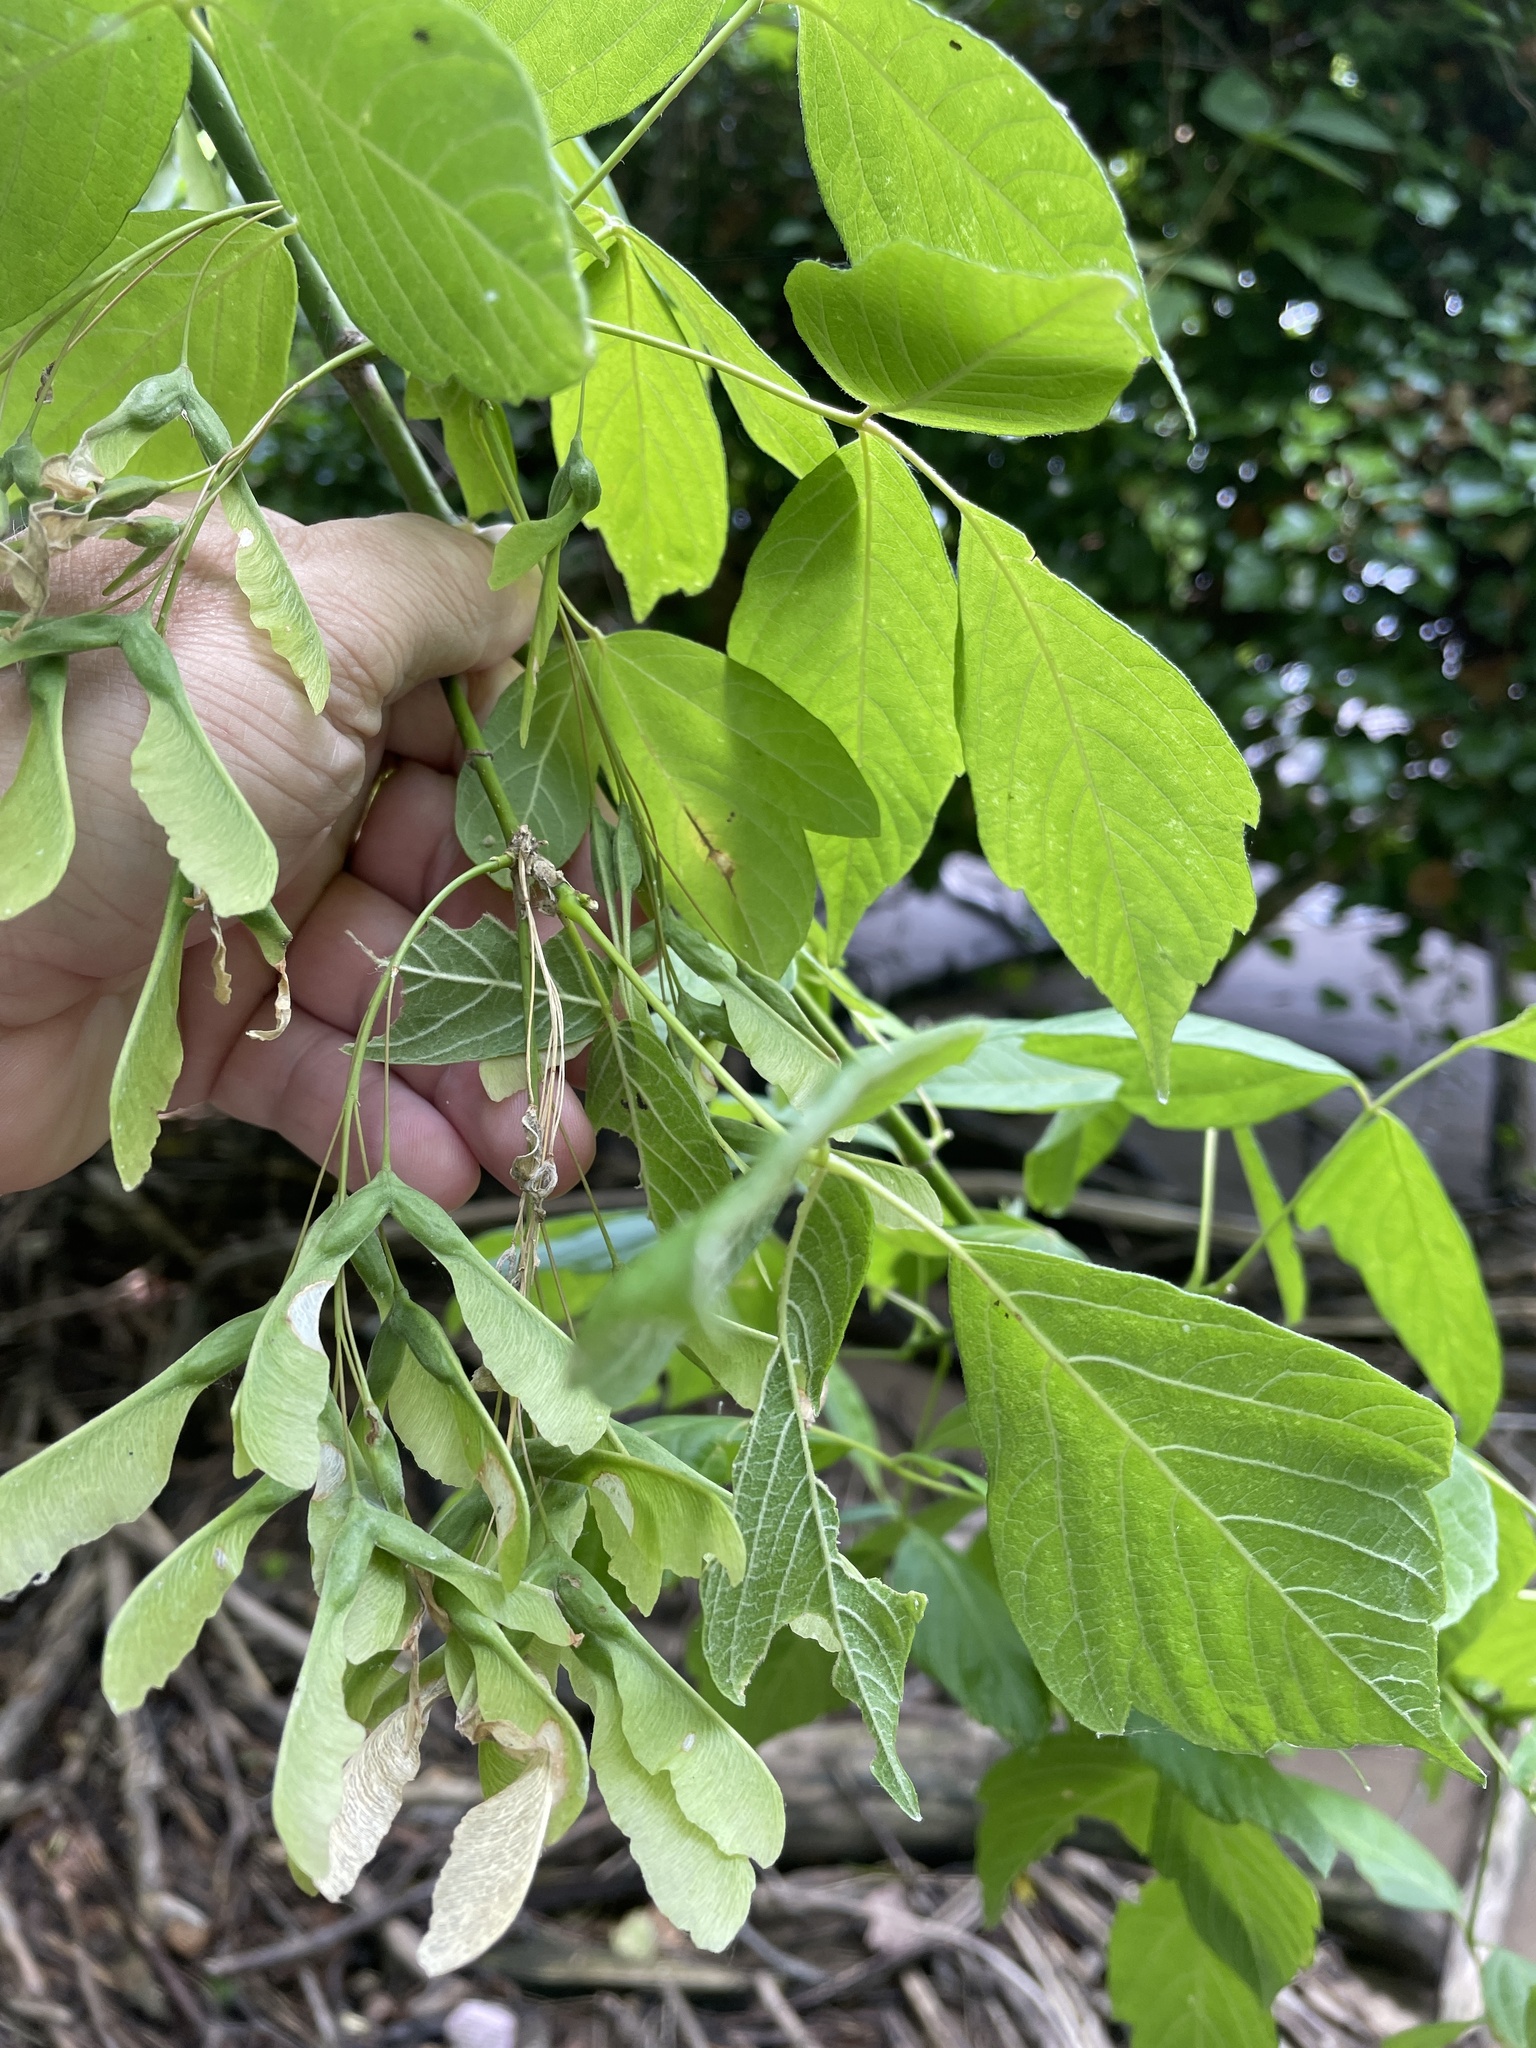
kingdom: Plantae
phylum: Tracheophyta
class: Magnoliopsida
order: Sapindales
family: Sapindaceae
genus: Acer
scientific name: Acer negundo
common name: Ashleaf maple
